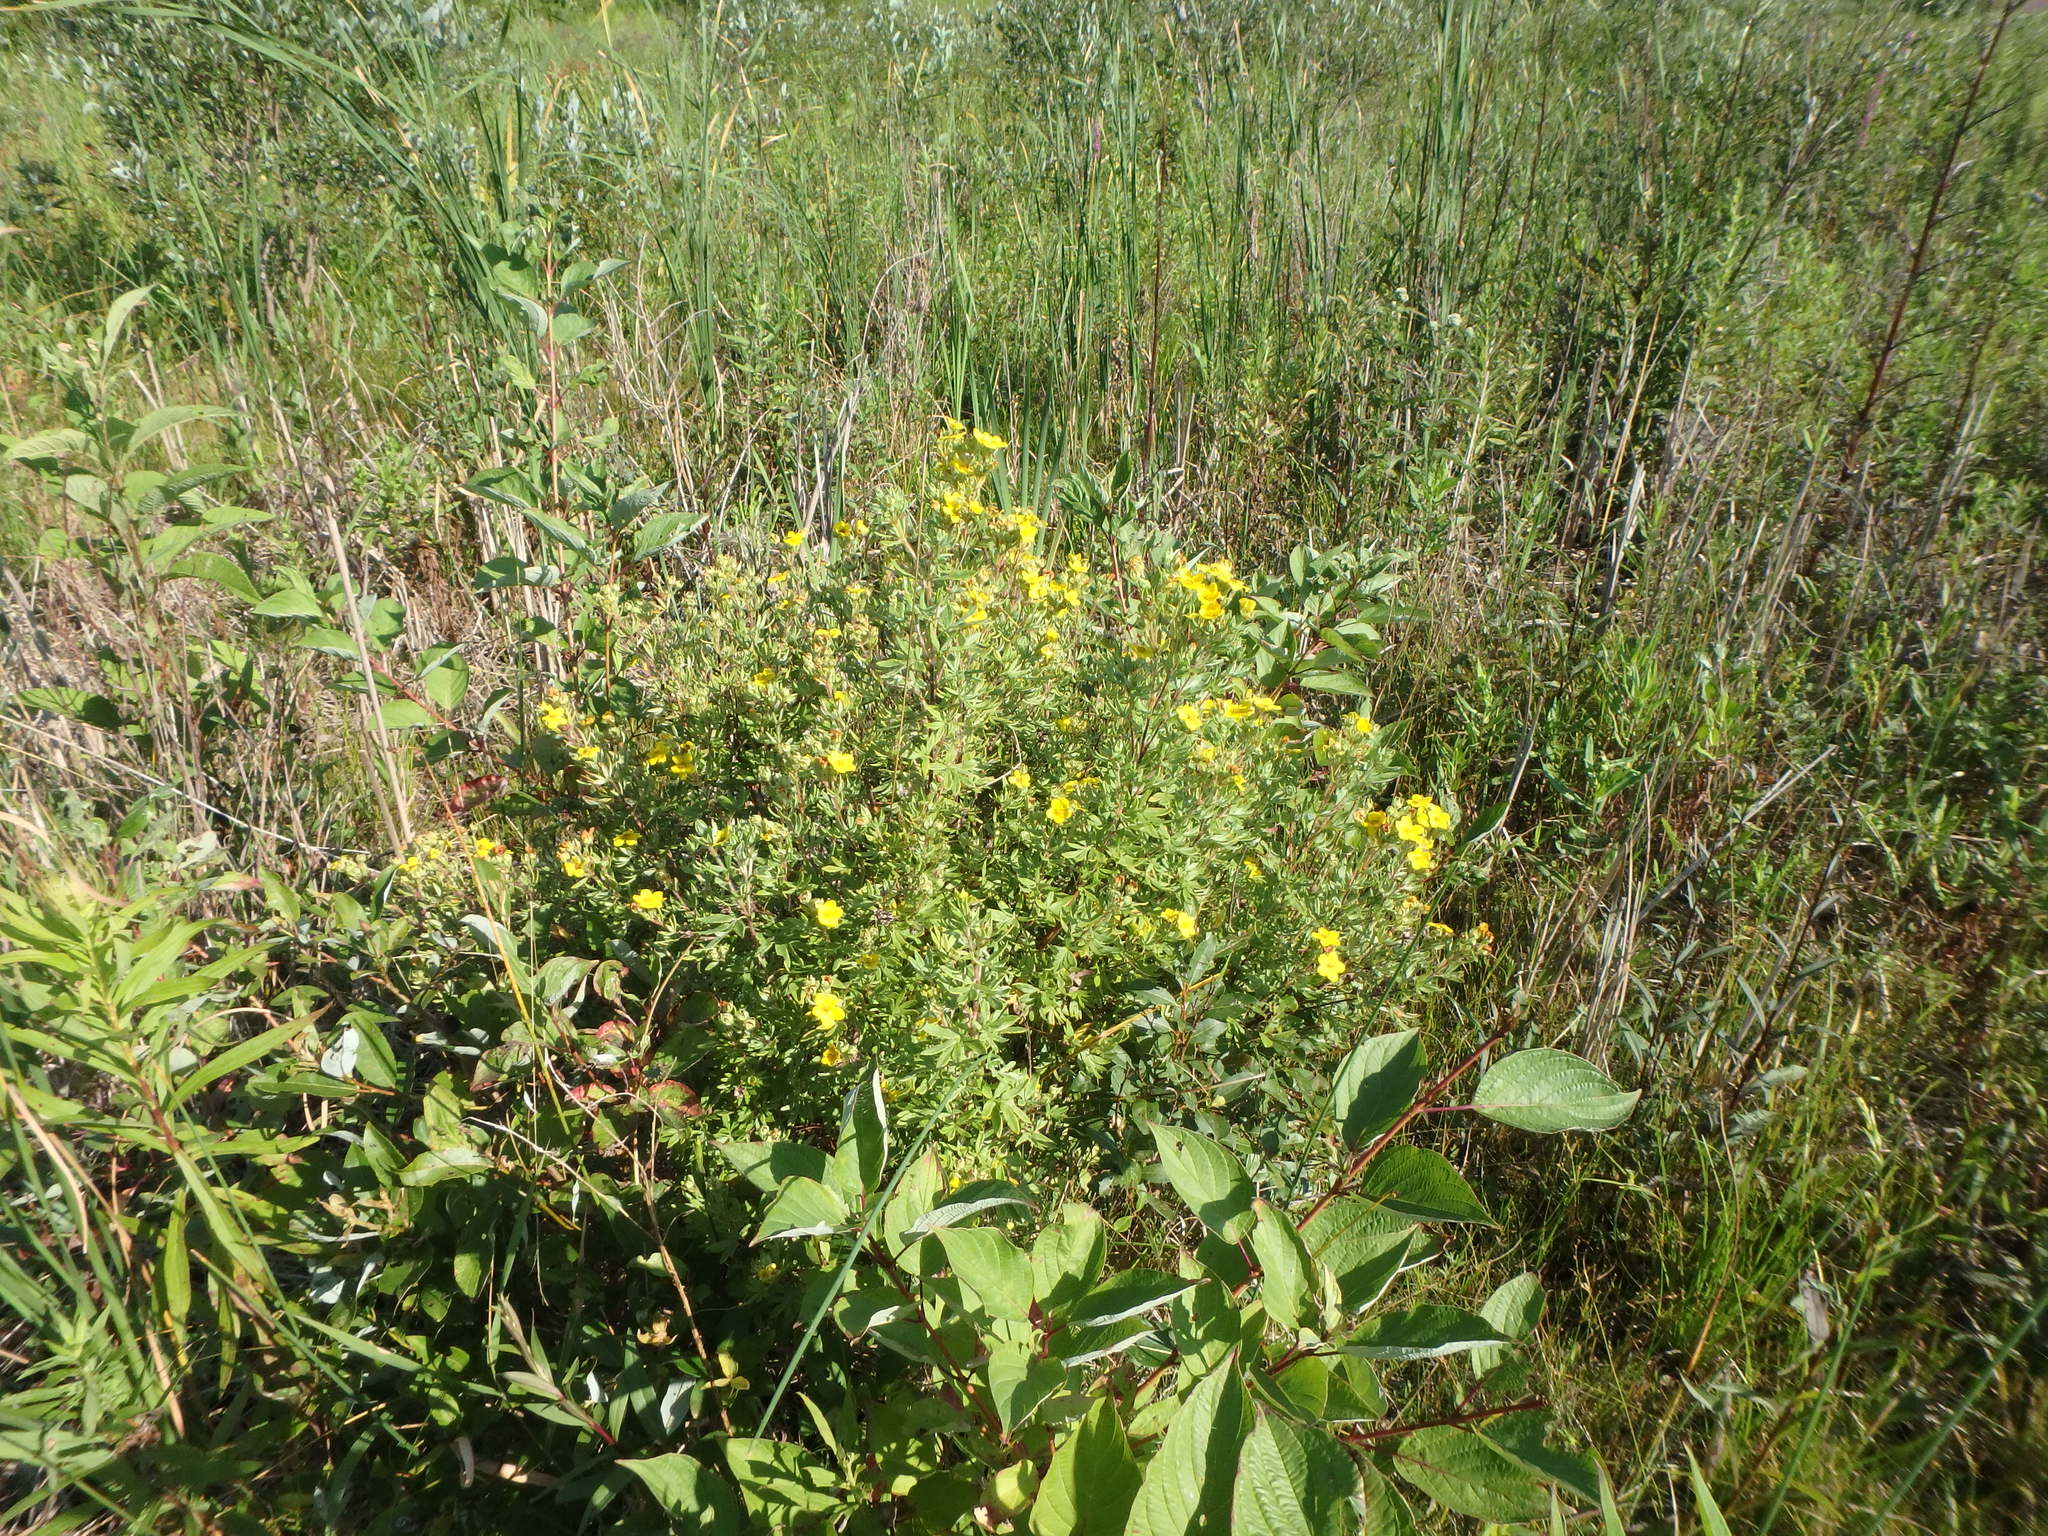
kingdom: Plantae
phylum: Tracheophyta
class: Magnoliopsida
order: Rosales
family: Rosaceae
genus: Dasiphora
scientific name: Dasiphora fruticosa
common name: Shrubby cinquefoil
